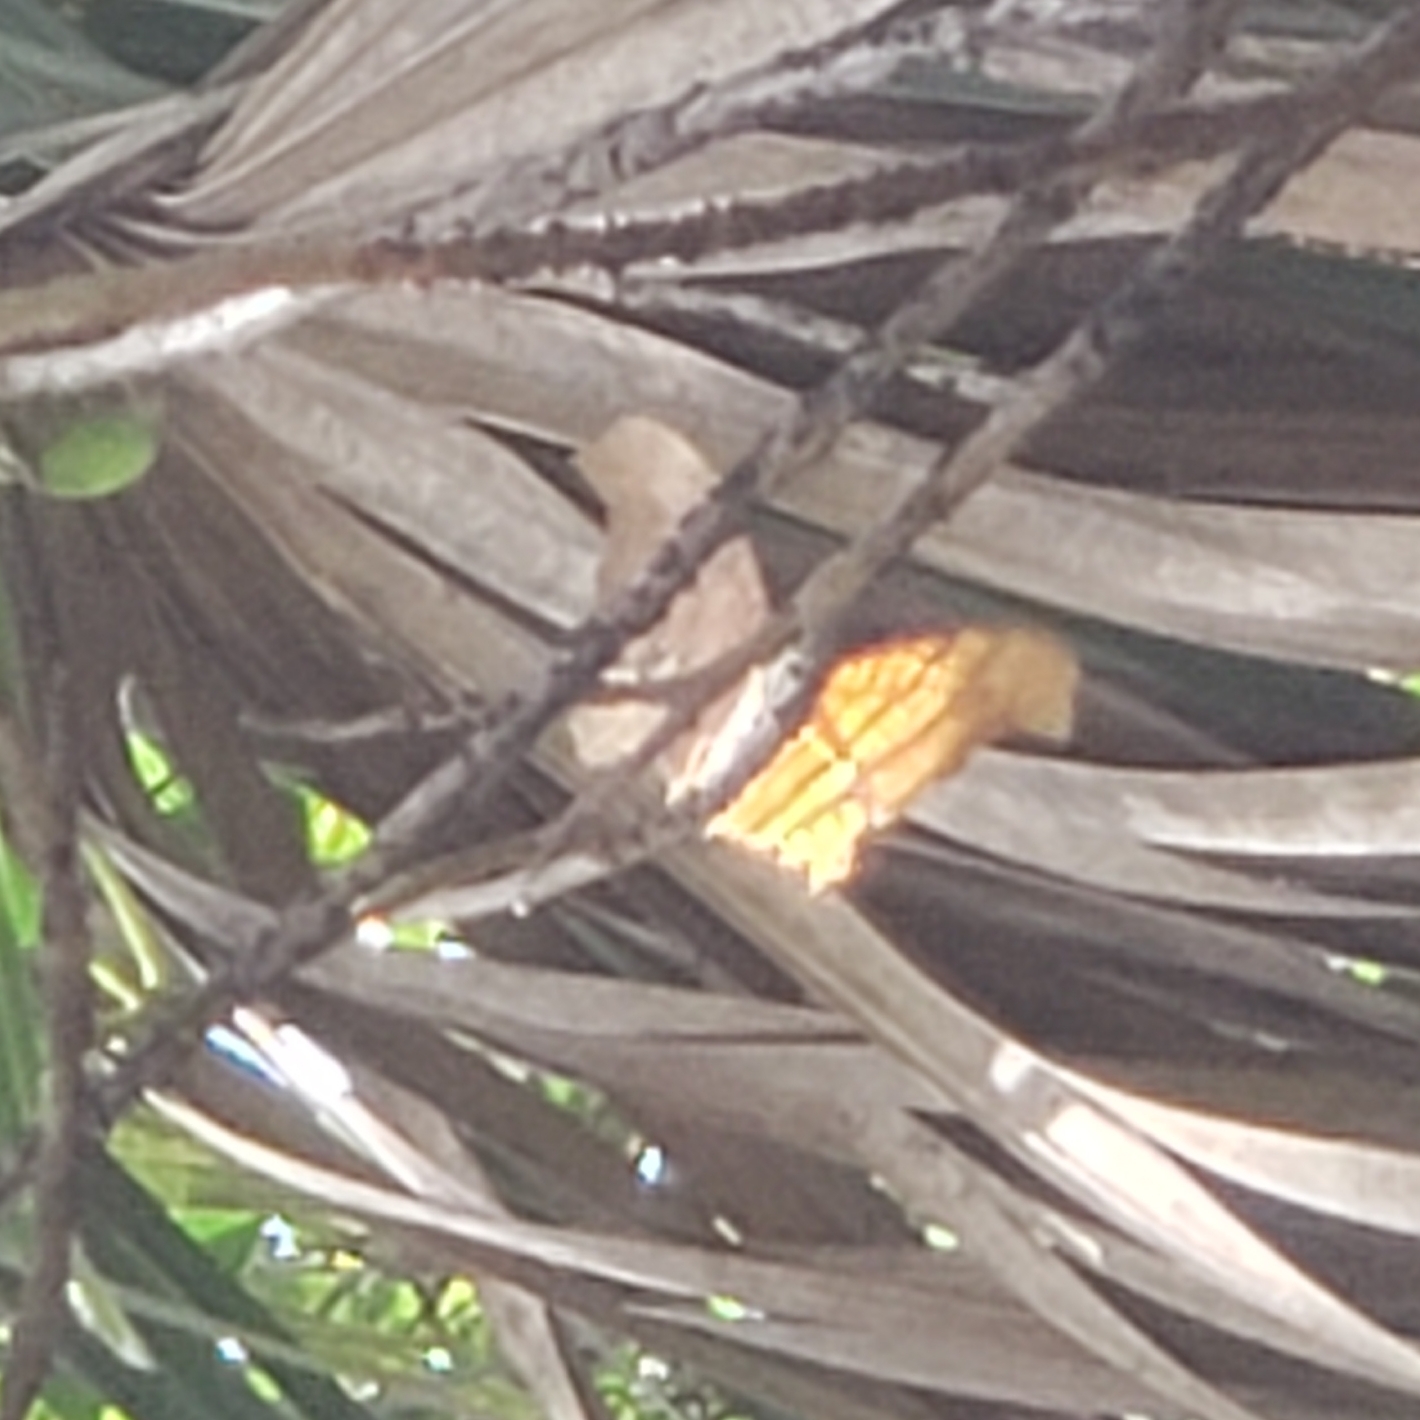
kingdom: Animalia
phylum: Arthropoda
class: Insecta
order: Lepidoptera
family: Nymphalidae
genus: Marpesia
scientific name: Marpesia petreus
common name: Red dagger wing
